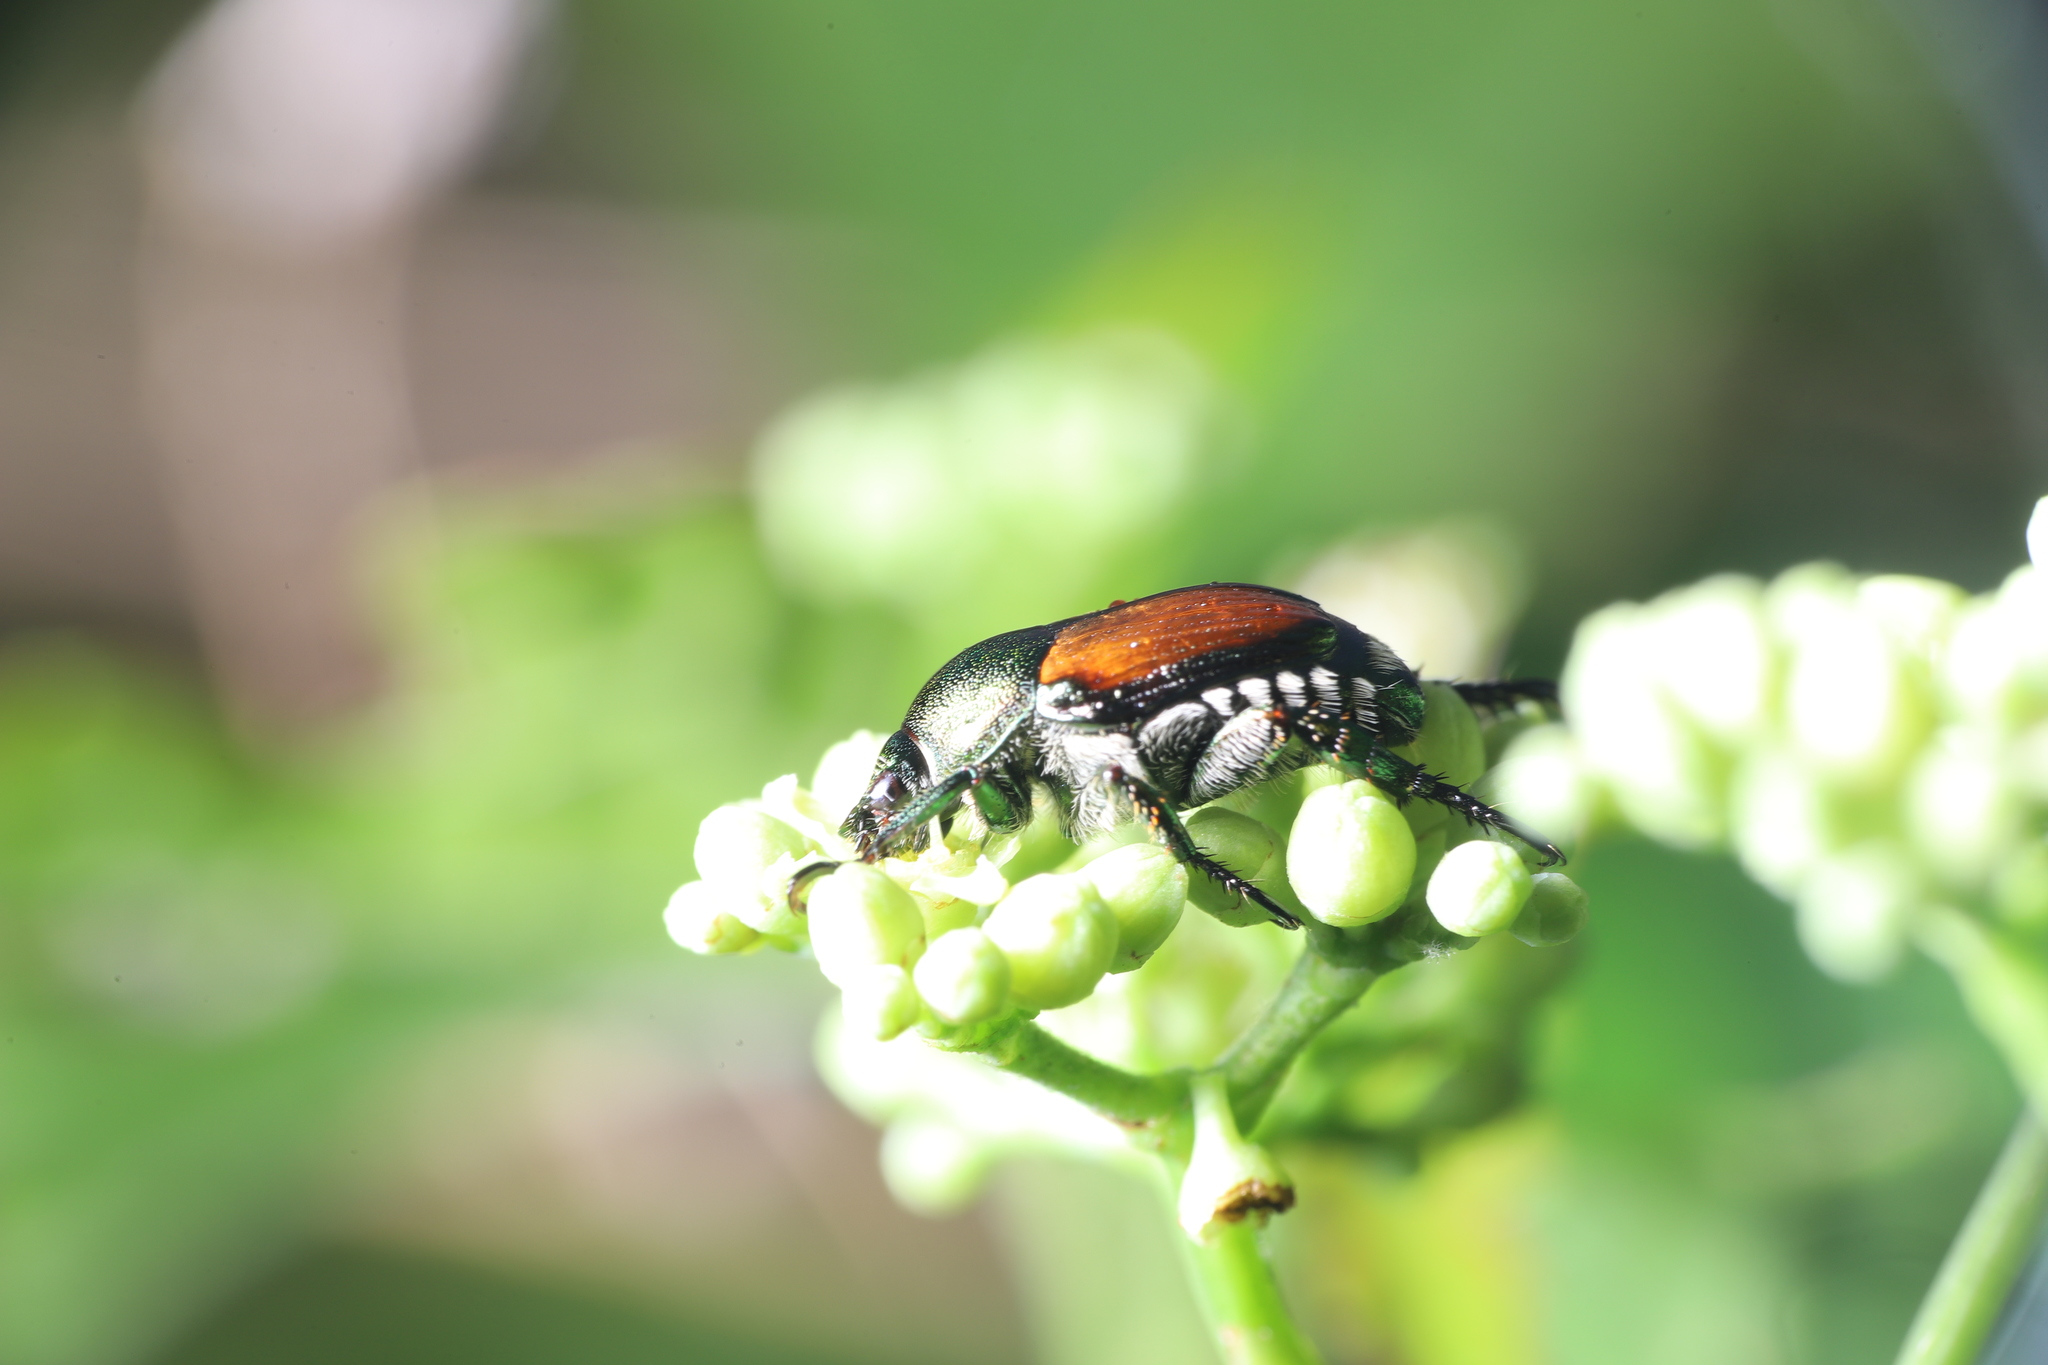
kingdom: Animalia
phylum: Arthropoda
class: Insecta
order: Coleoptera
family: Scarabaeidae
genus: Popillia
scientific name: Popillia japonica
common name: Japanese beetle
